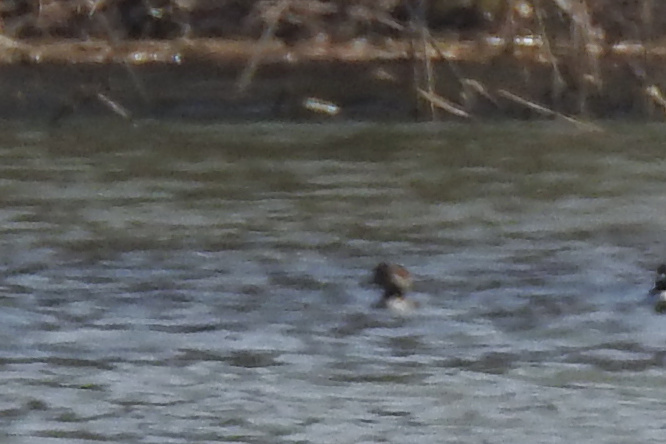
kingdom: Animalia
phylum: Chordata
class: Aves
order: Anseriformes
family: Anatidae
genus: Lophodytes
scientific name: Lophodytes cucullatus
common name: Hooded merganser
